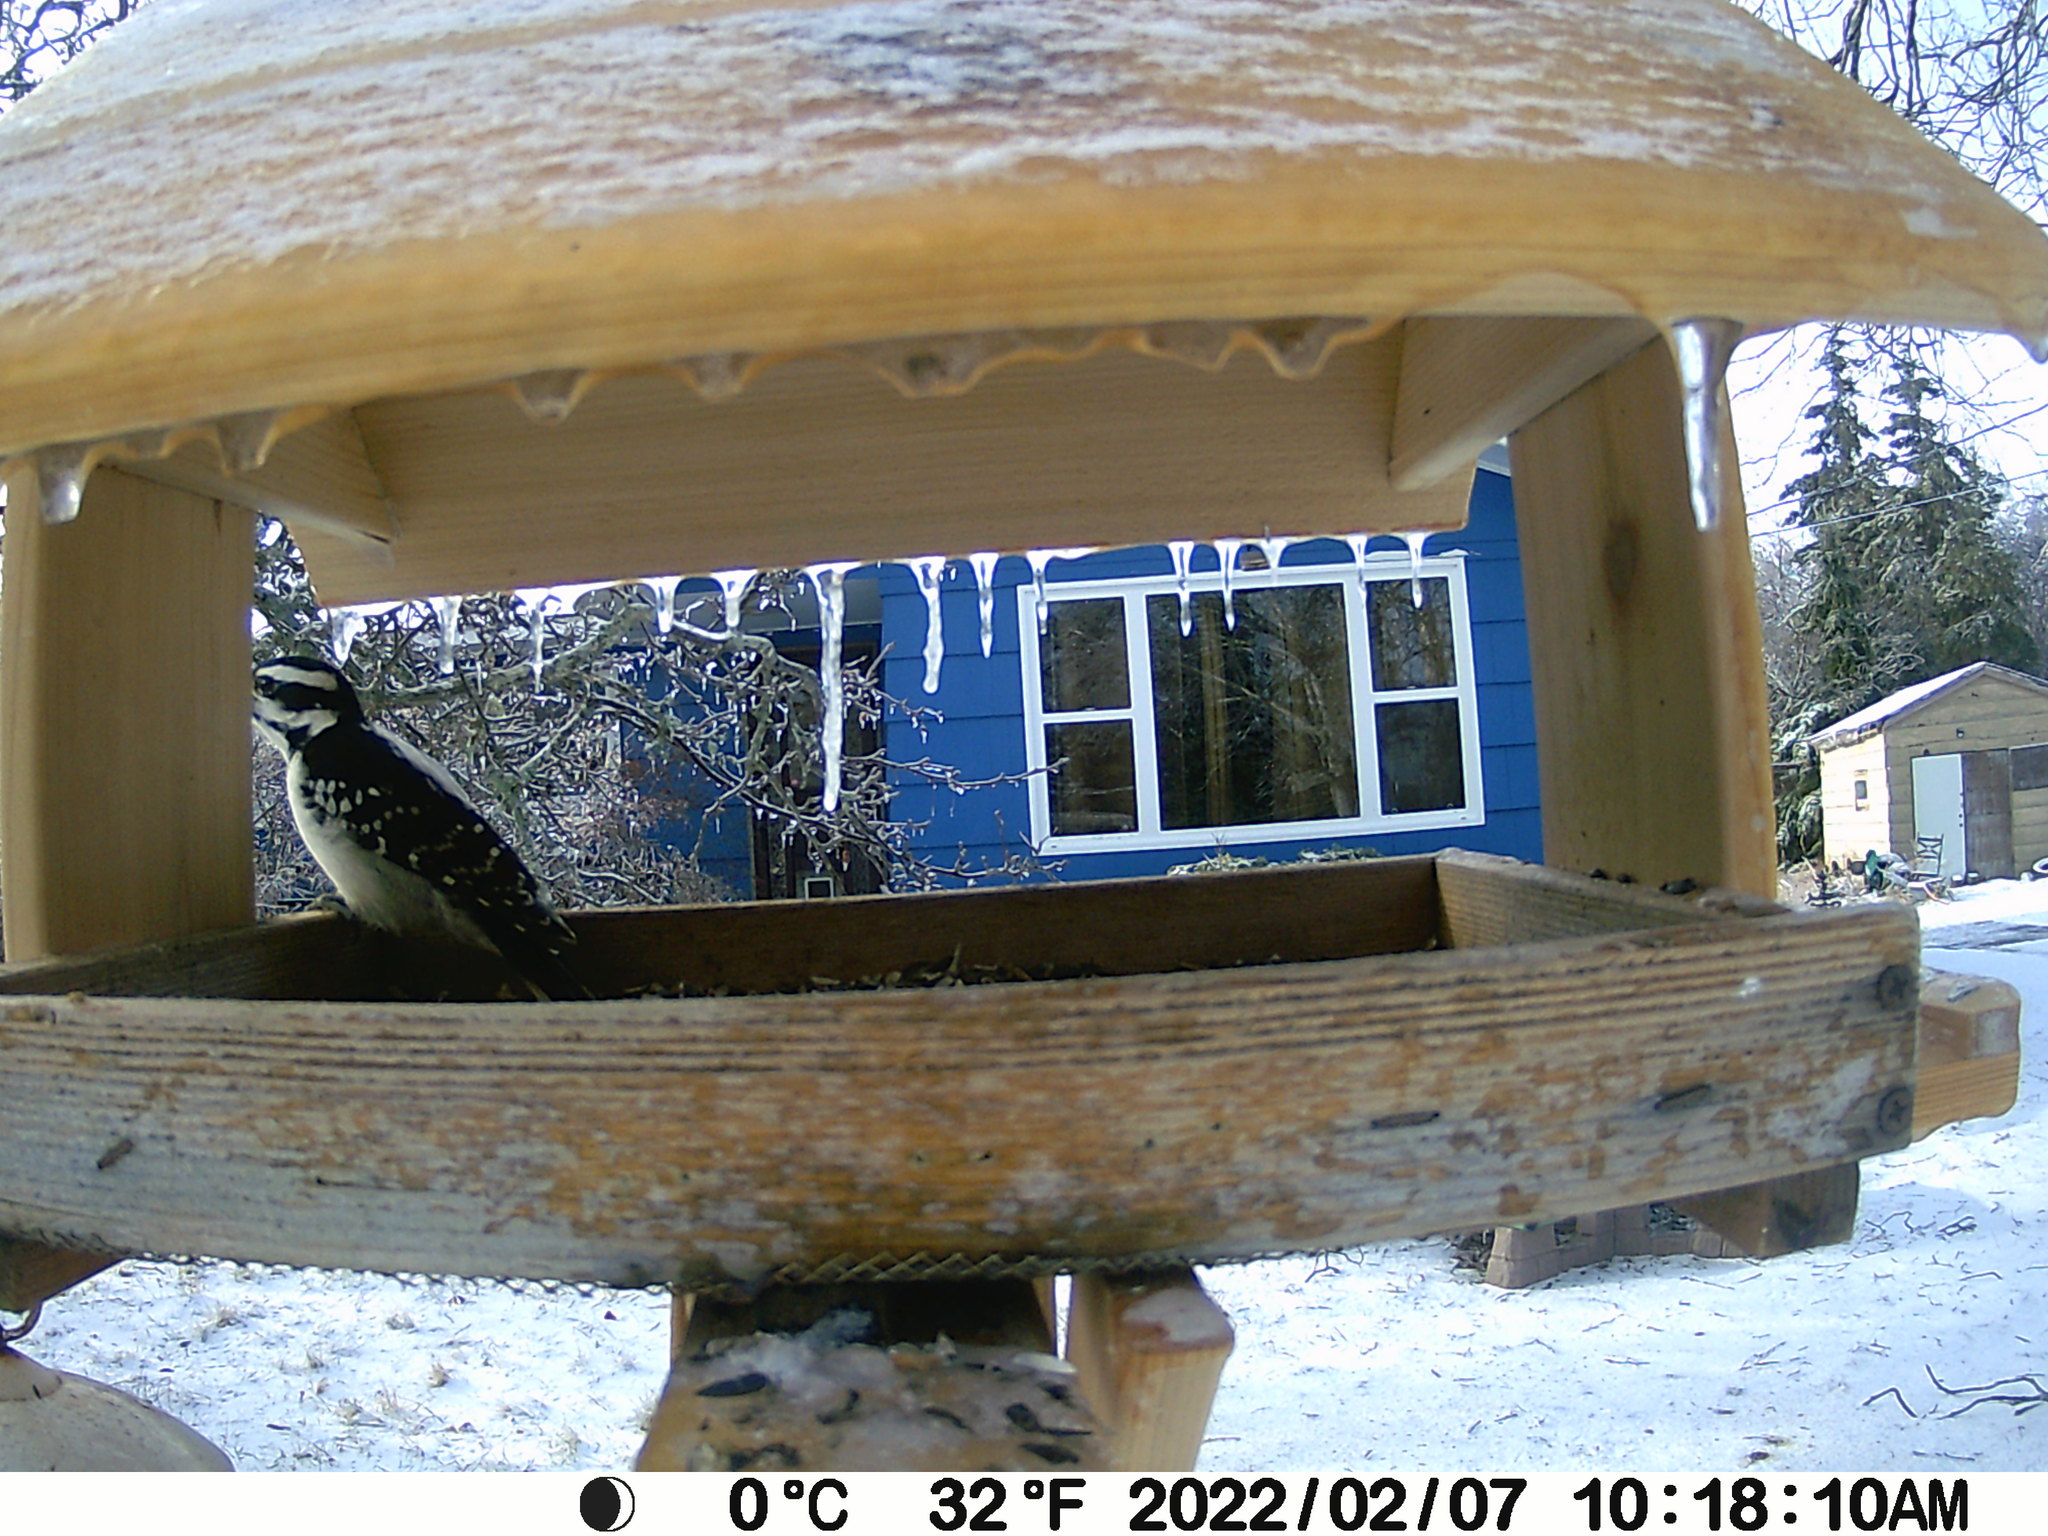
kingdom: Animalia
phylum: Chordata
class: Aves
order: Piciformes
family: Picidae
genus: Leuconotopicus
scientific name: Leuconotopicus villosus
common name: Hairy woodpecker
